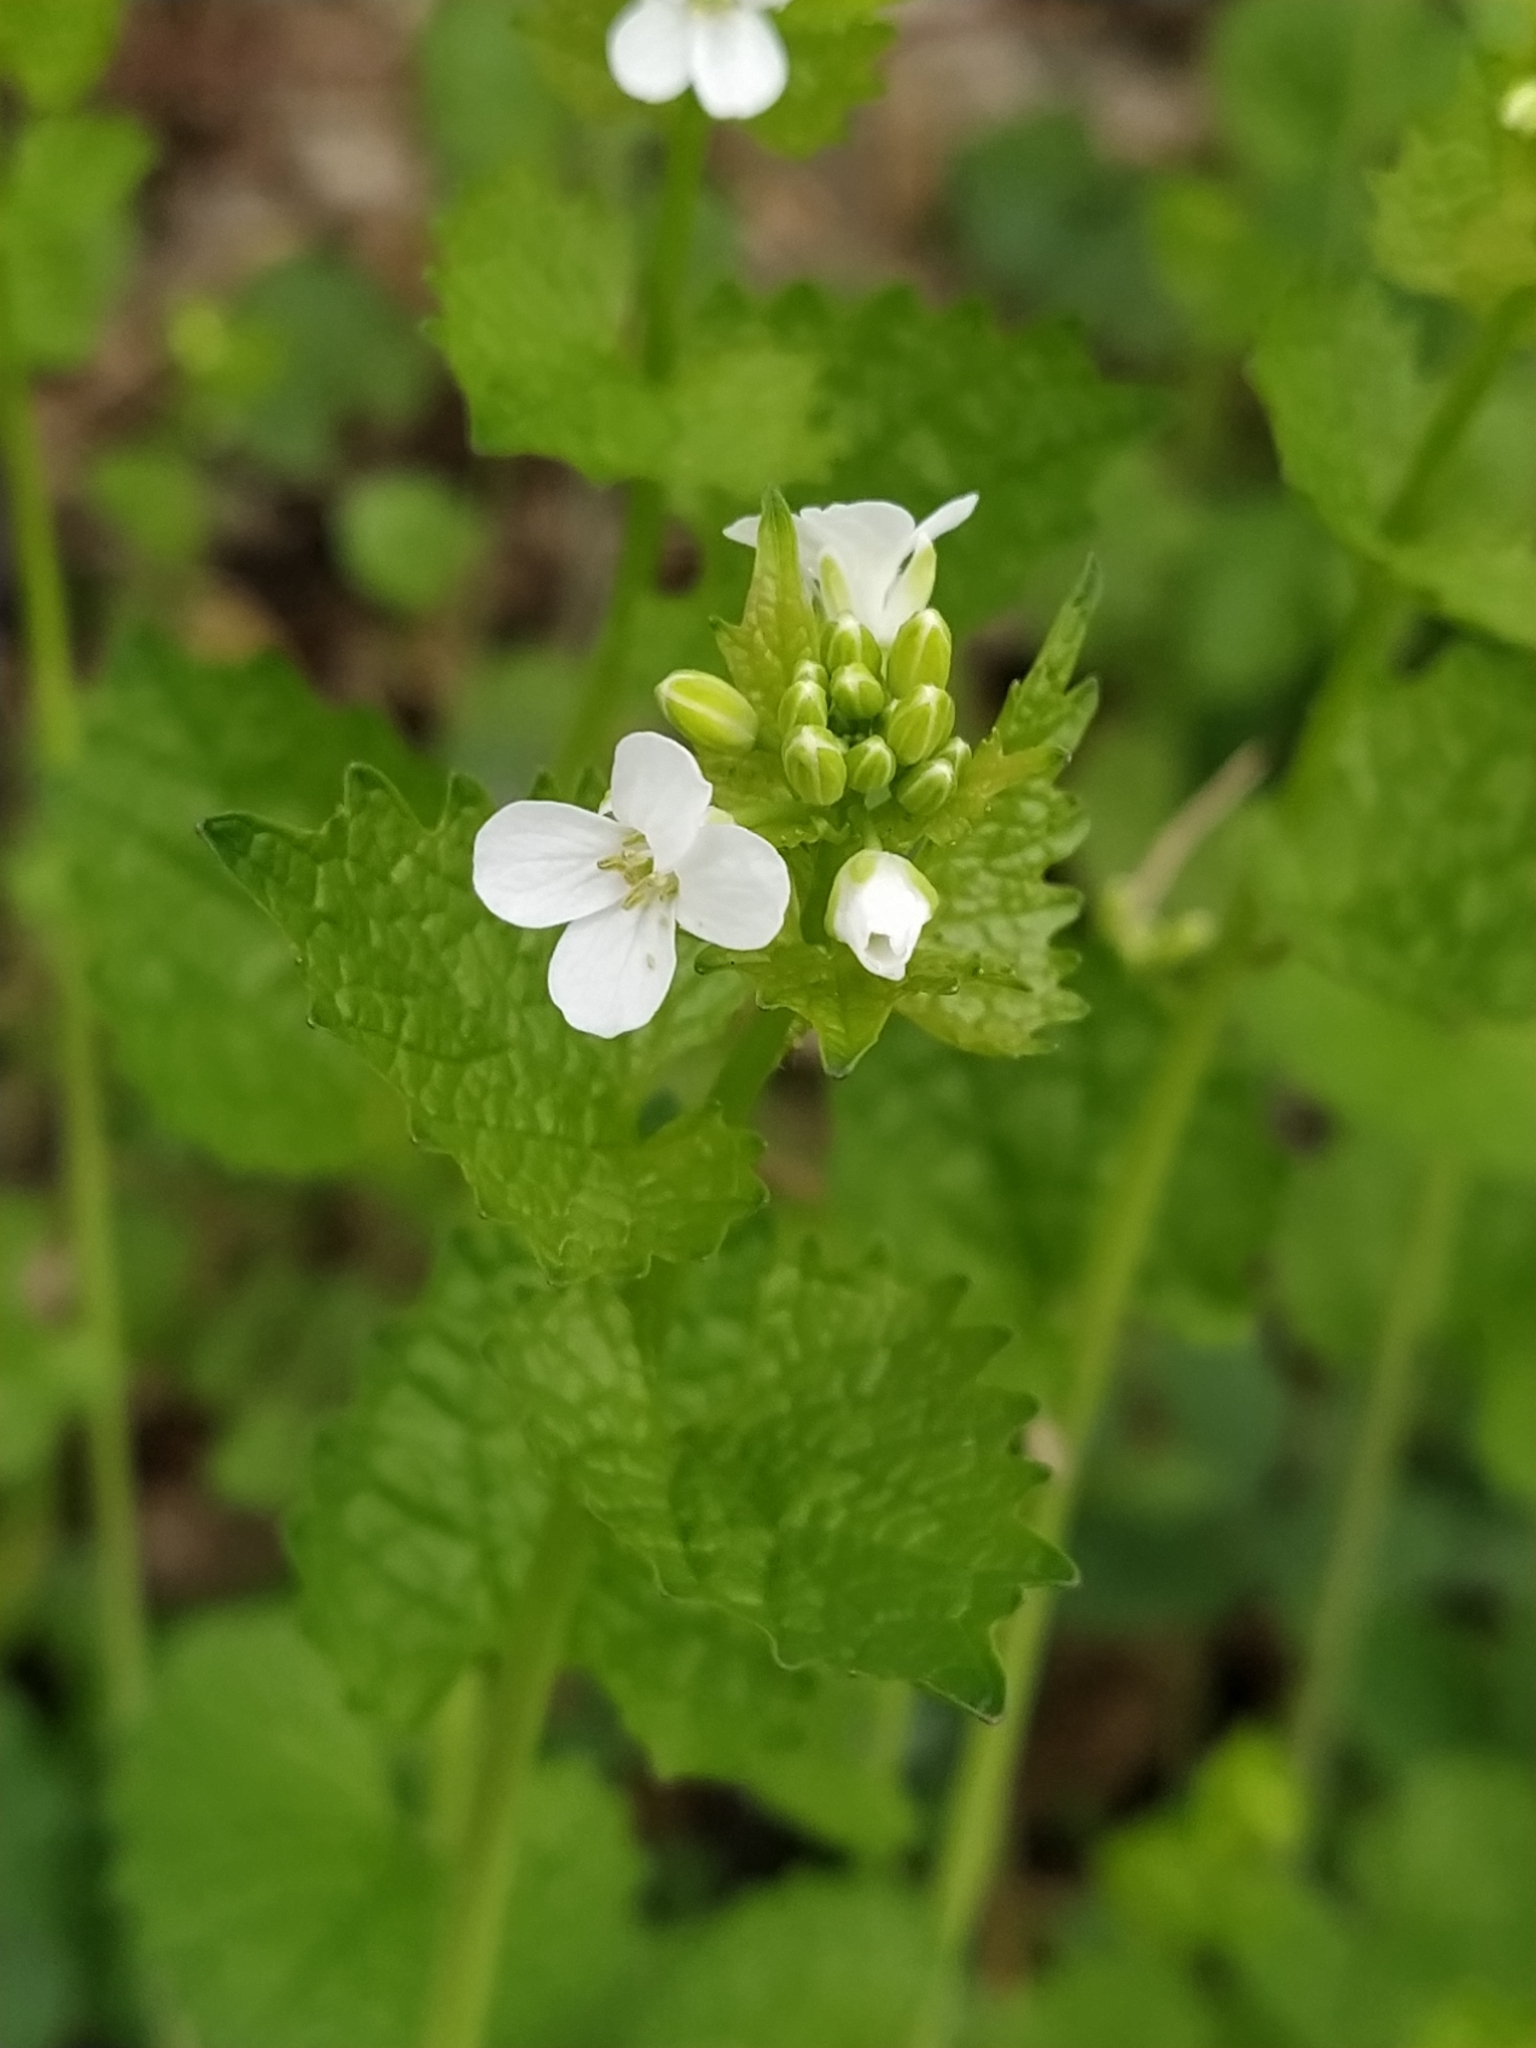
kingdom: Plantae
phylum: Tracheophyta
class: Magnoliopsida
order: Brassicales
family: Brassicaceae
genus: Alliaria
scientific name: Alliaria petiolata
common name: Garlic mustard
